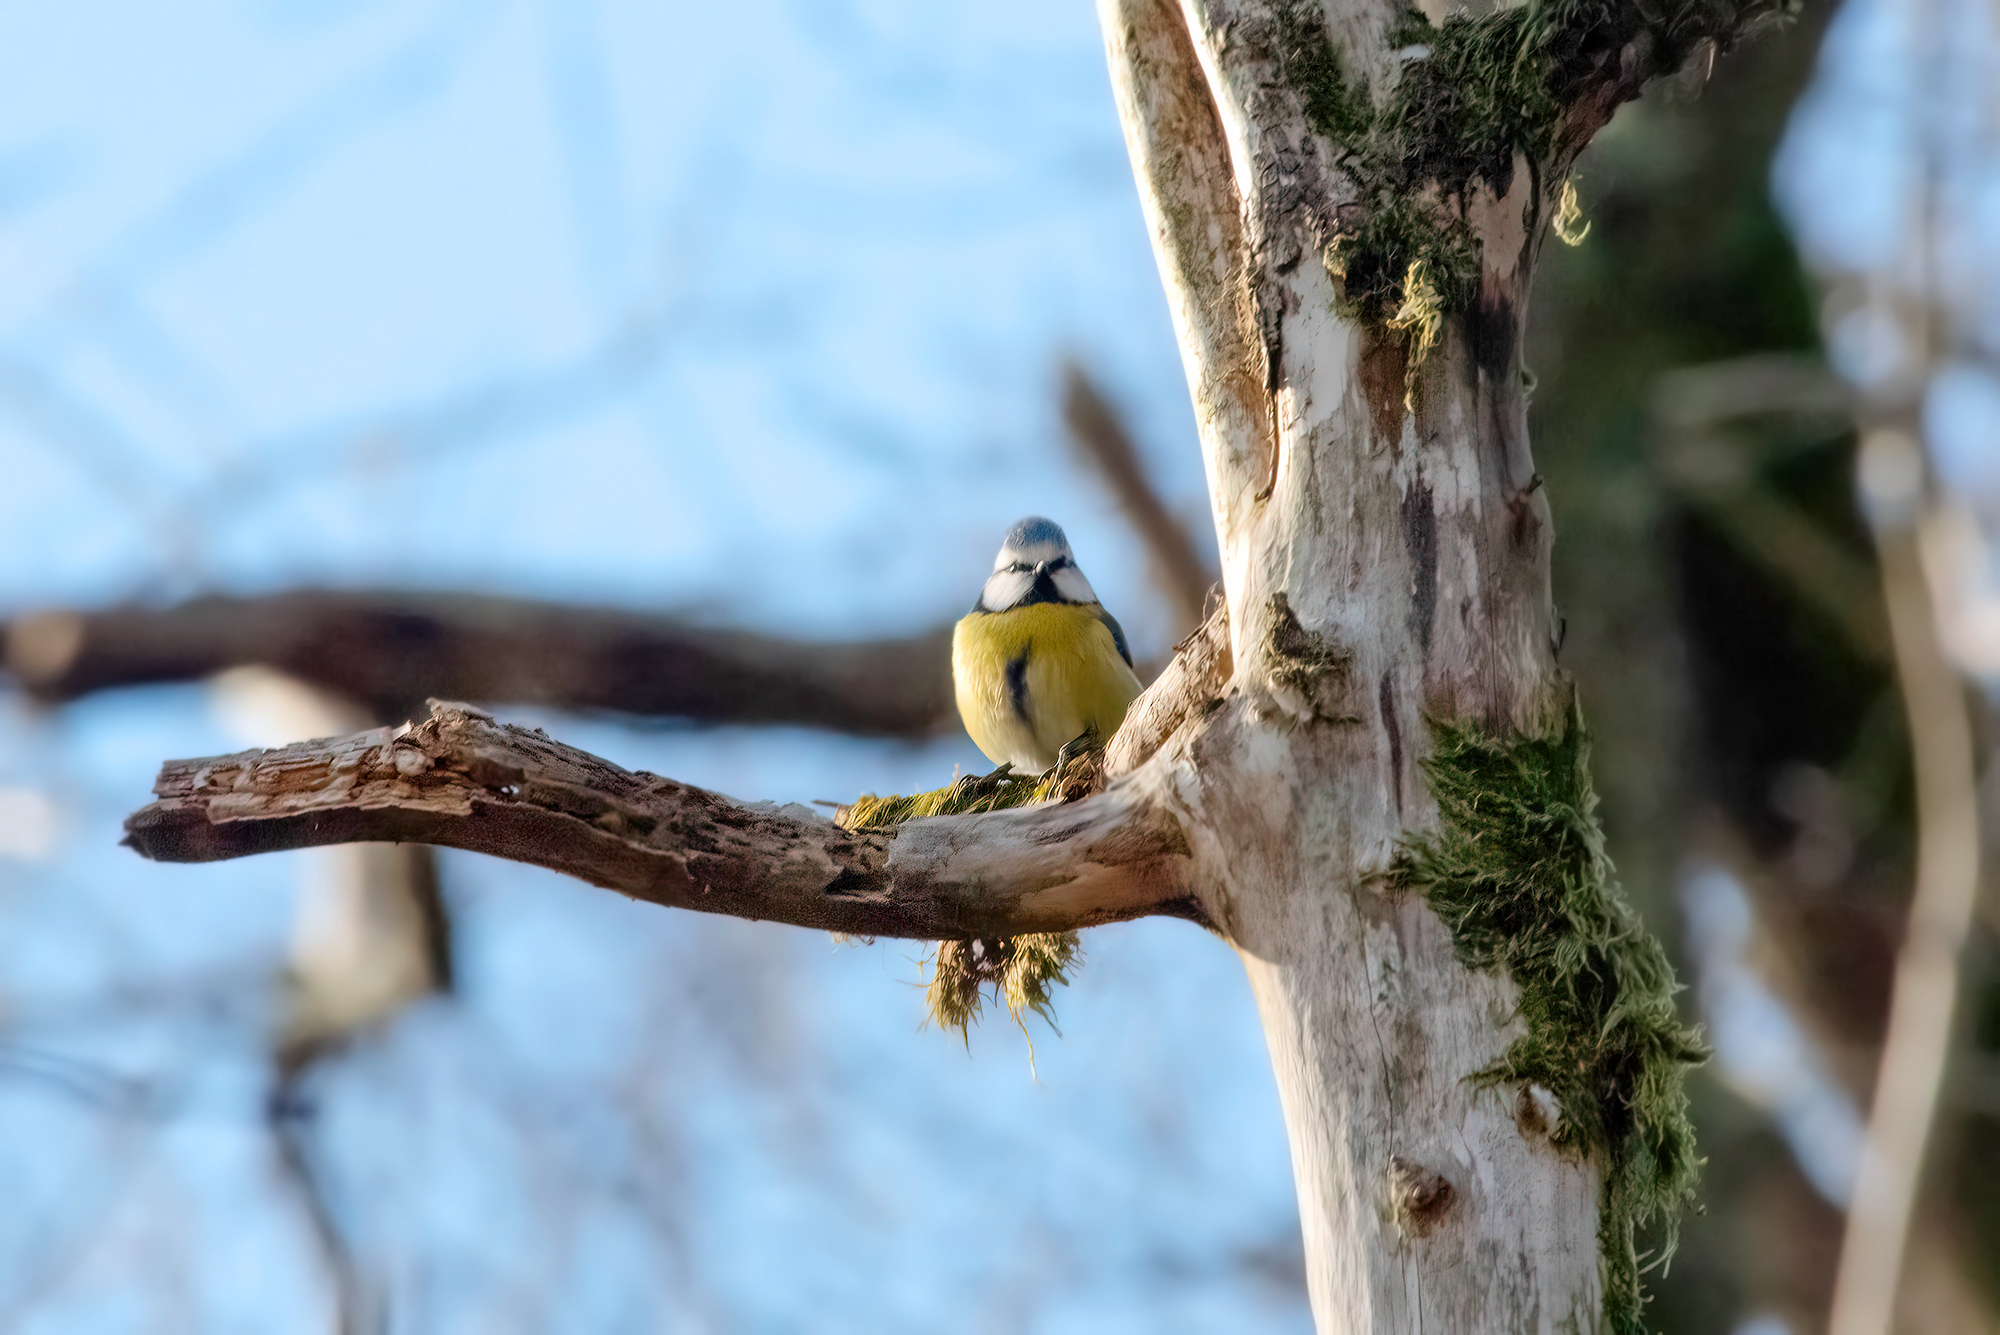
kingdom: Animalia
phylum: Chordata
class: Aves
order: Passeriformes
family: Paridae
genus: Cyanistes
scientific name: Cyanistes caeruleus
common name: Eurasian blue tit
